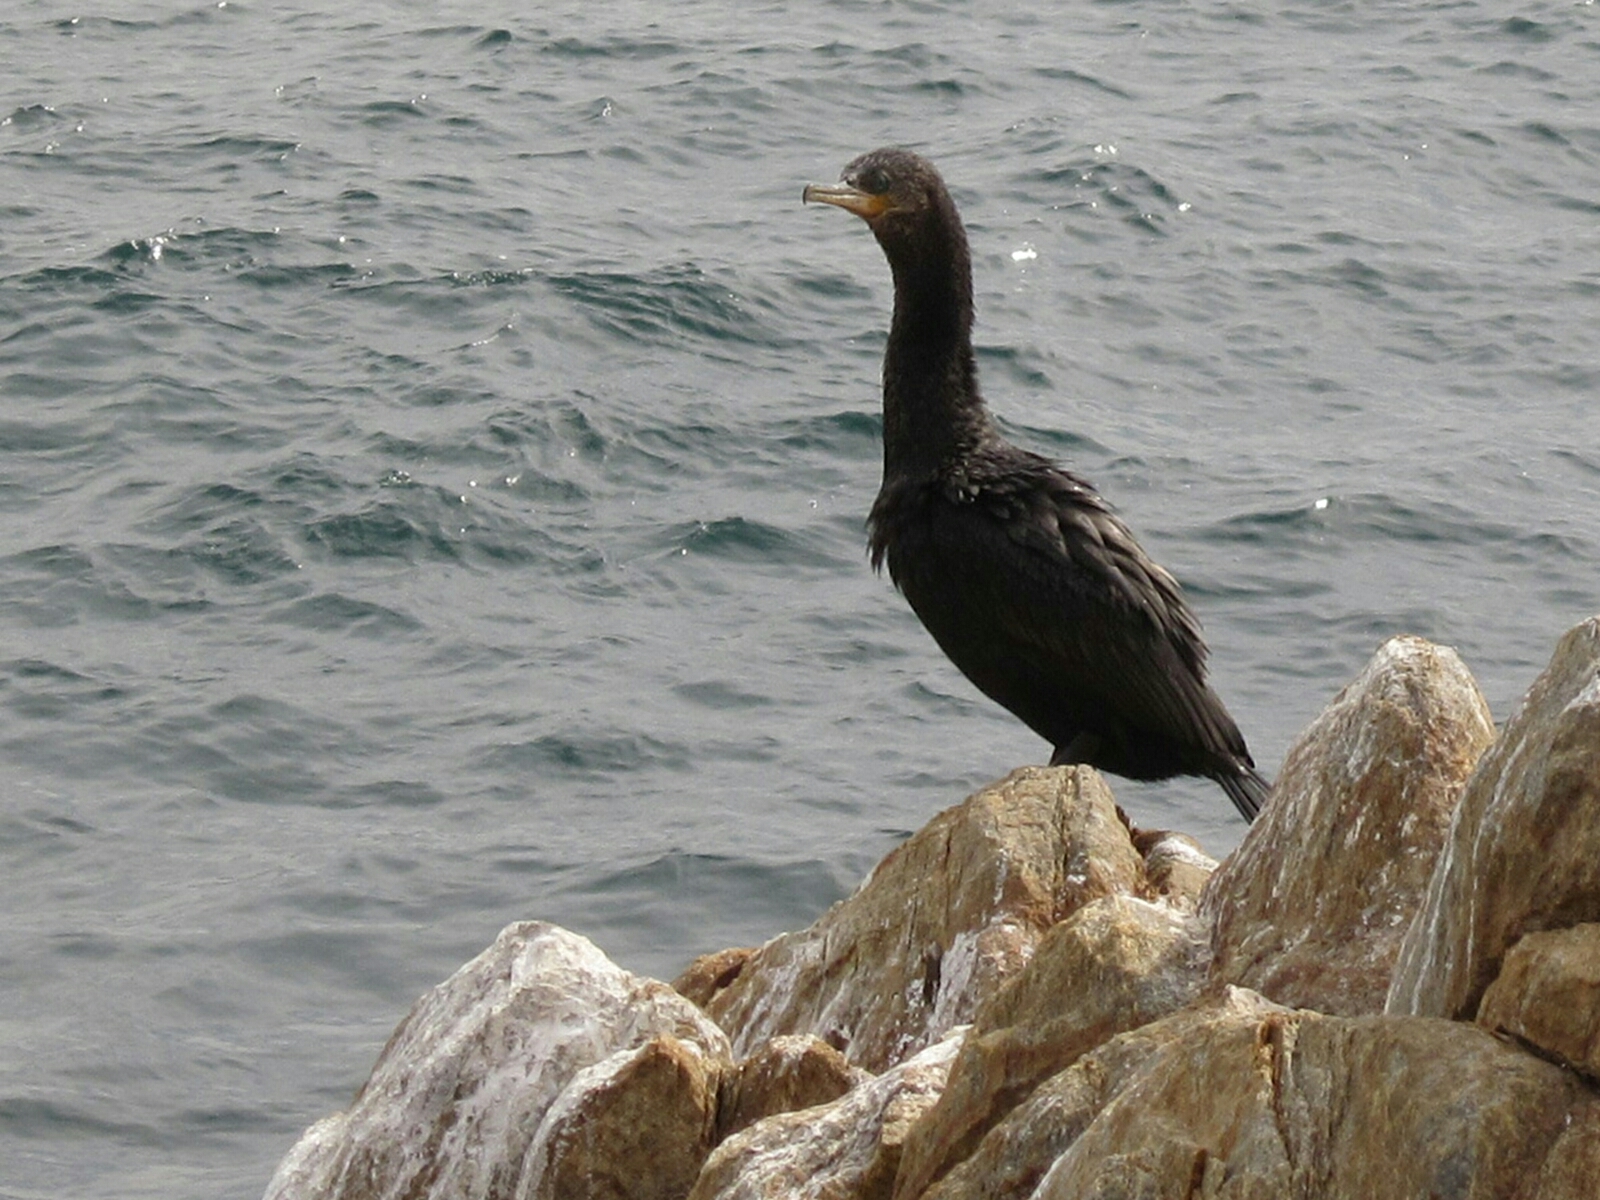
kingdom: Animalia
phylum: Chordata
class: Aves
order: Suliformes
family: Phalacrocoracidae
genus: Phalacrocorax
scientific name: Phalacrocorax brasilianus
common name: Neotropic cormorant
